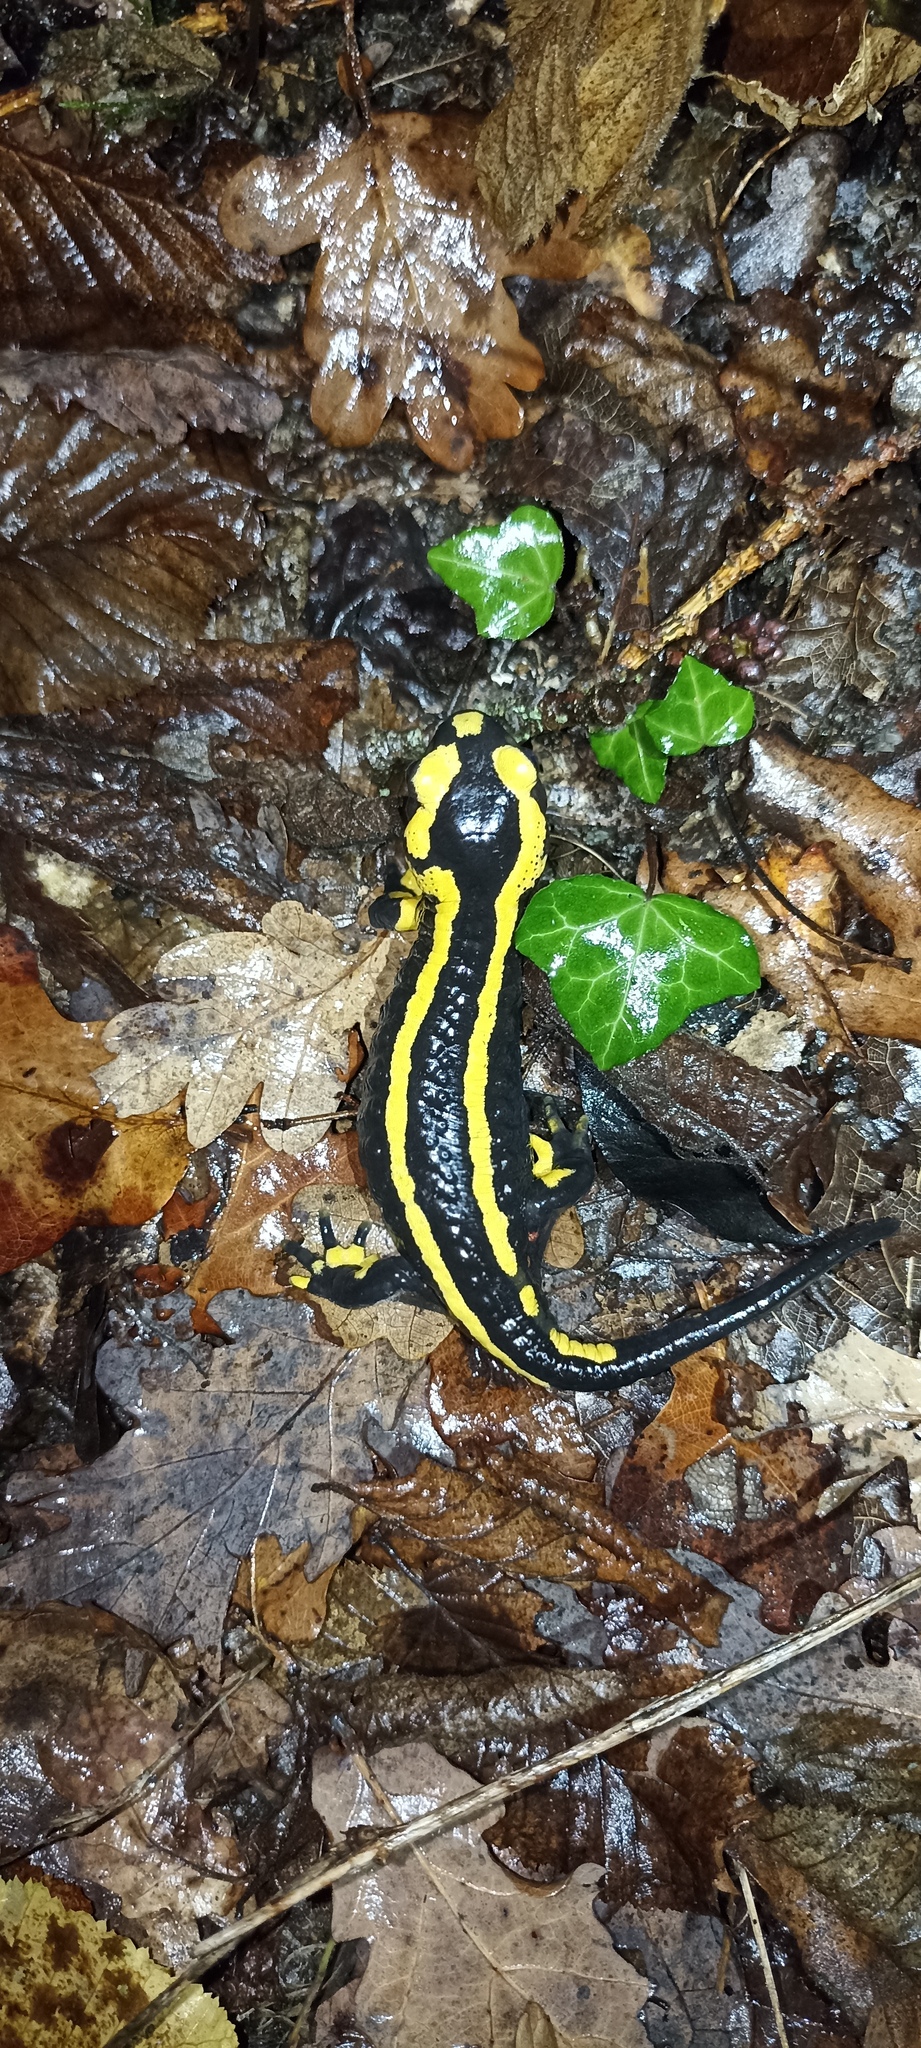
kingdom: Animalia
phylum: Chordata
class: Amphibia
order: Caudata
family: Salamandridae
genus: Salamandra
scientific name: Salamandra salamandra
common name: Fire salamander
